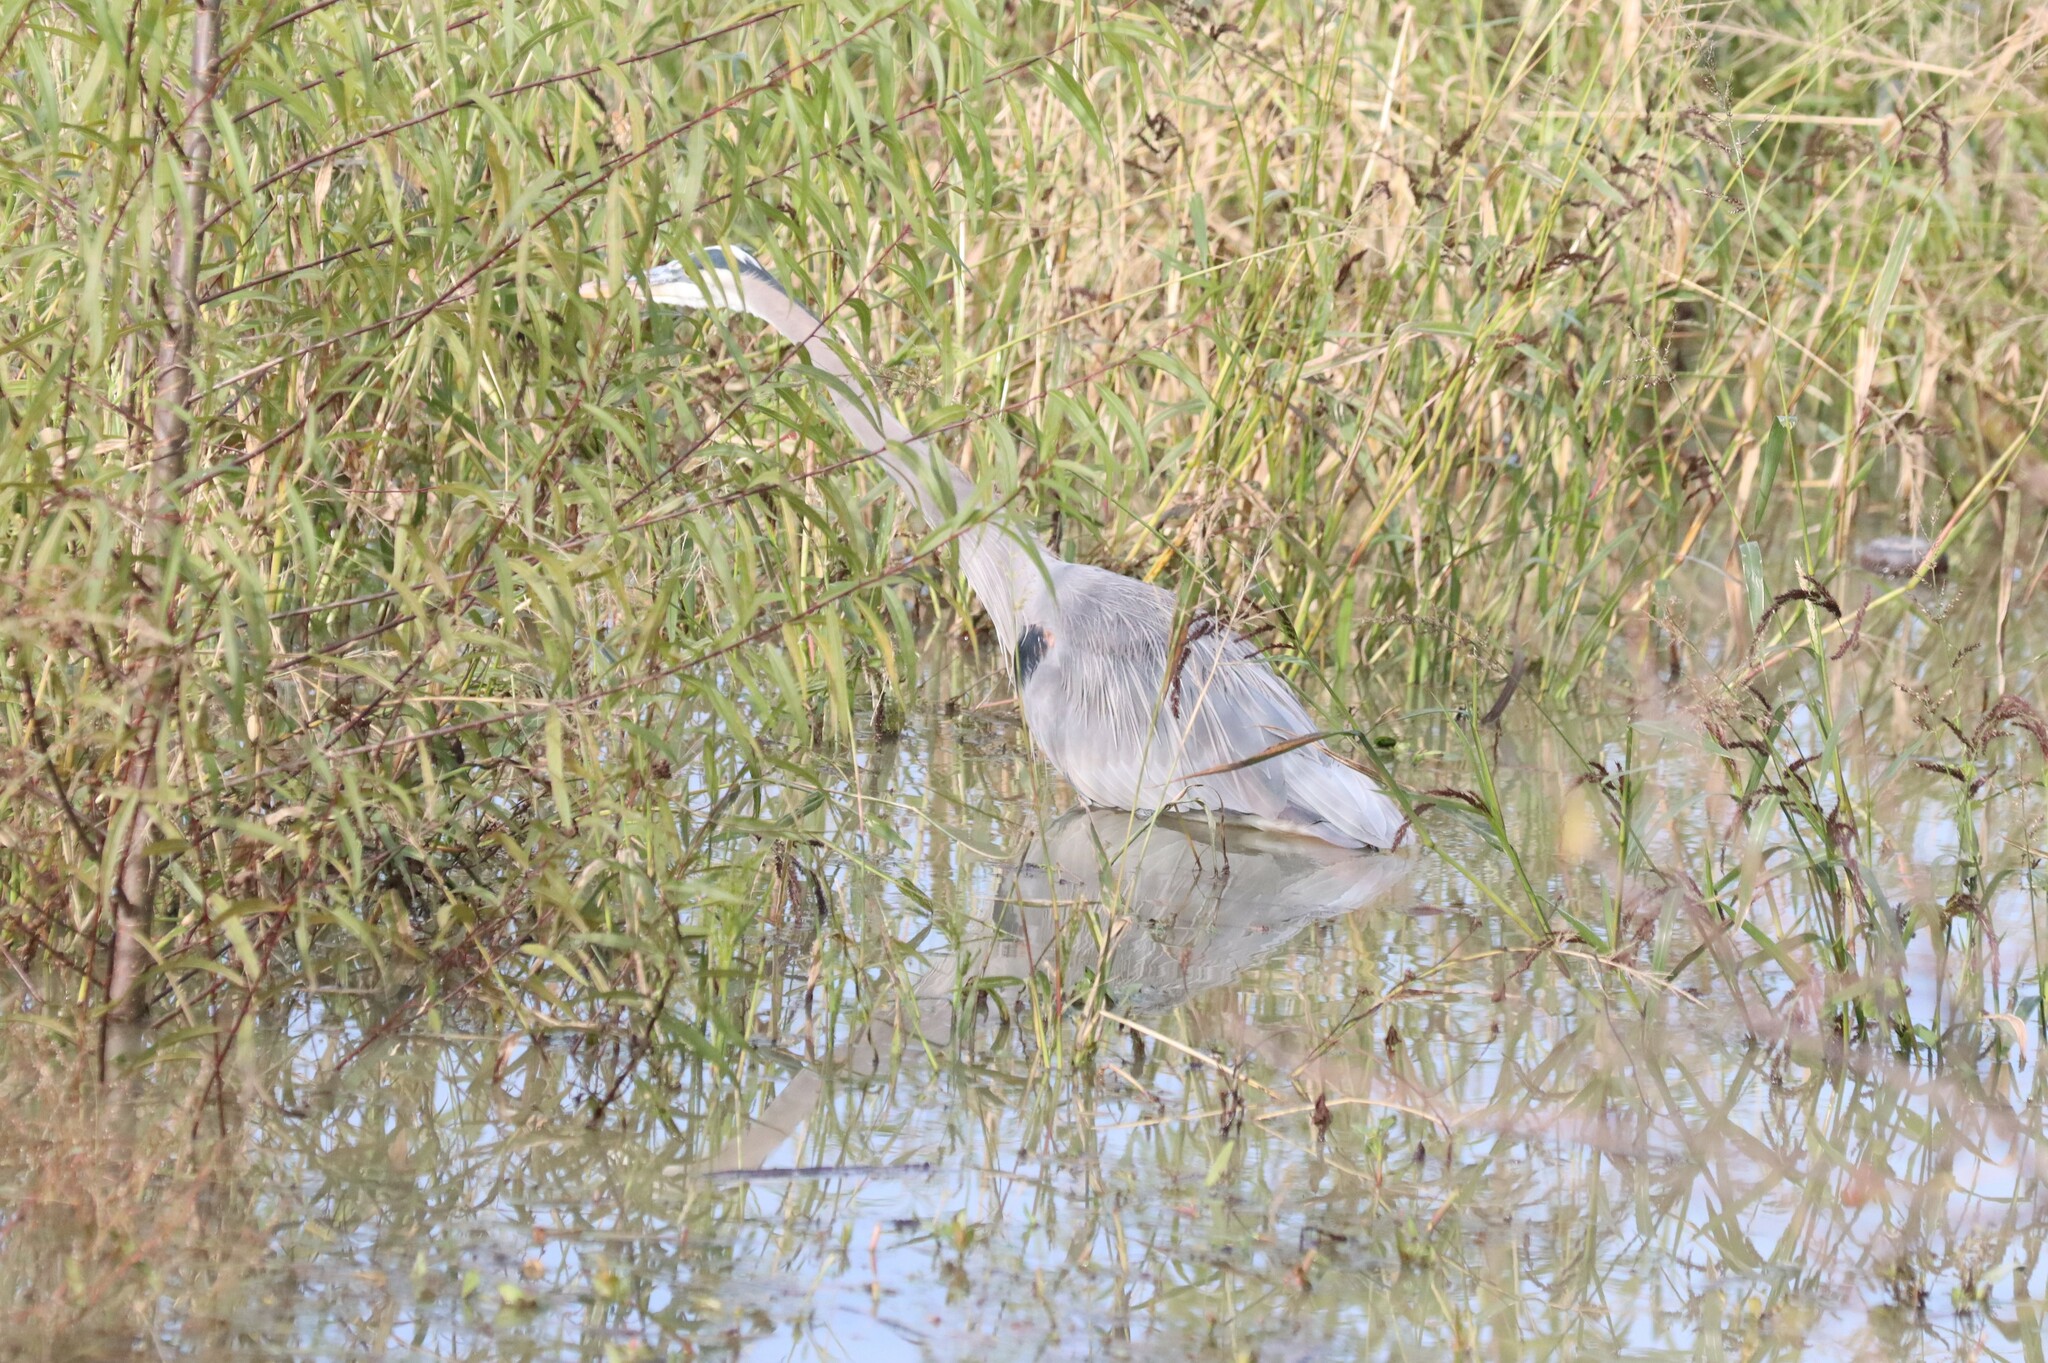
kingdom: Animalia
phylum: Chordata
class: Aves
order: Pelecaniformes
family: Ardeidae
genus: Ardea
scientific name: Ardea herodias
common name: Great blue heron
